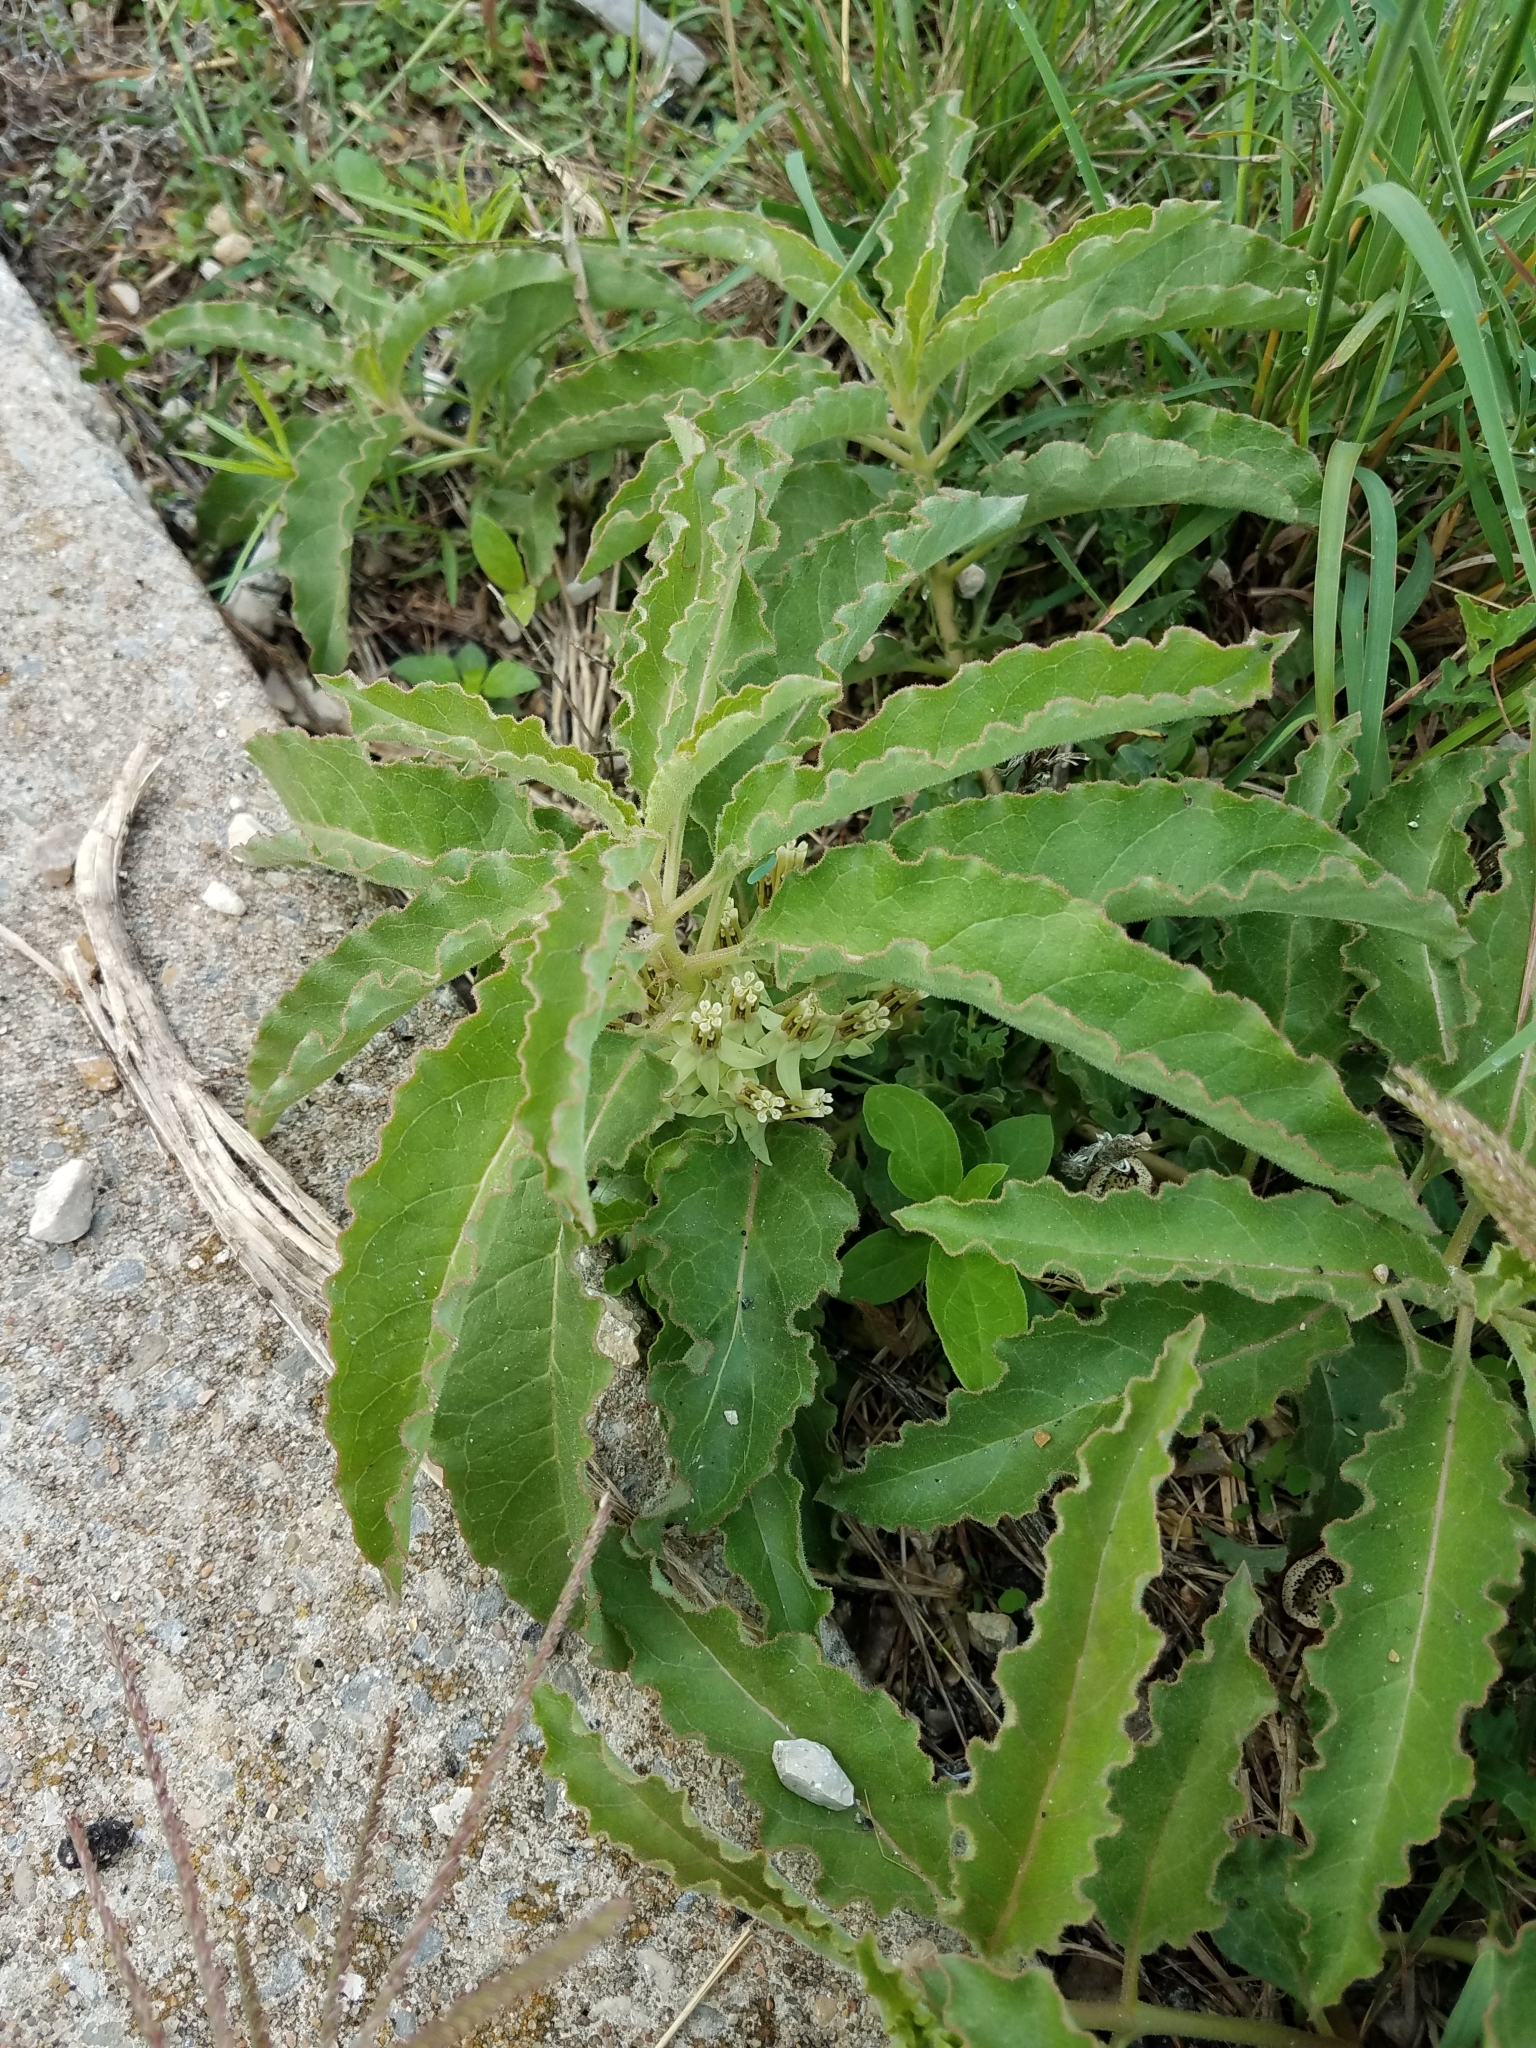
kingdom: Plantae
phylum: Tracheophyta
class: Magnoliopsida
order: Gentianales
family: Apocynaceae
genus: Asclepias
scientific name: Asclepias oenotheroides
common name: Zizotes milkweed
